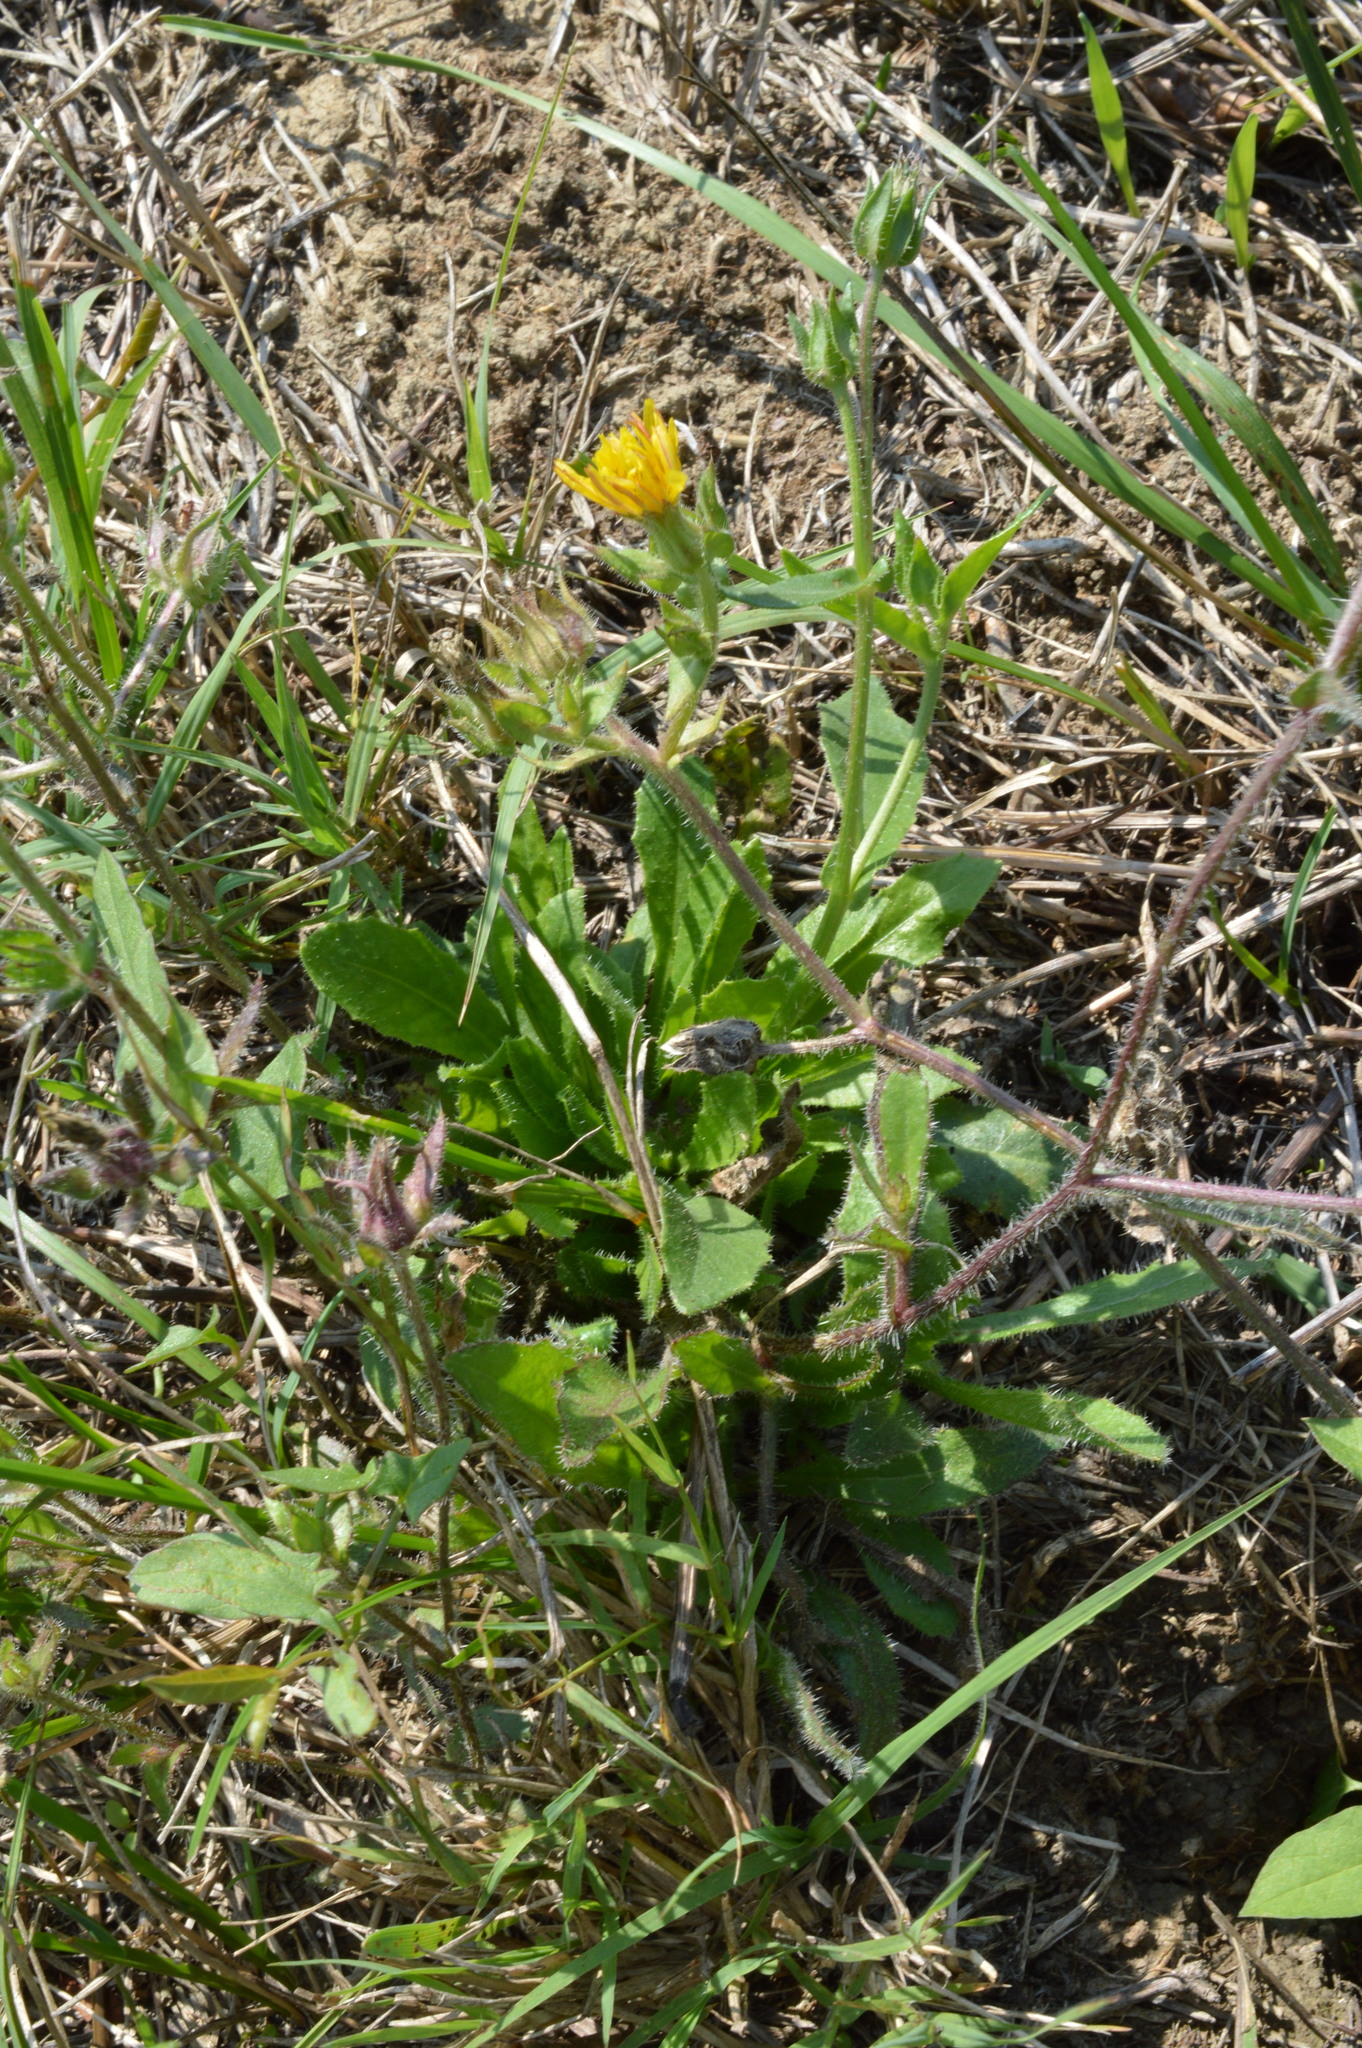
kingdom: Plantae
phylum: Tracheophyta
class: Magnoliopsida
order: Asterales
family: Asteraceae
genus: Helminthotheca
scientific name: Helminthotheca echioides
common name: Ox-tongue
